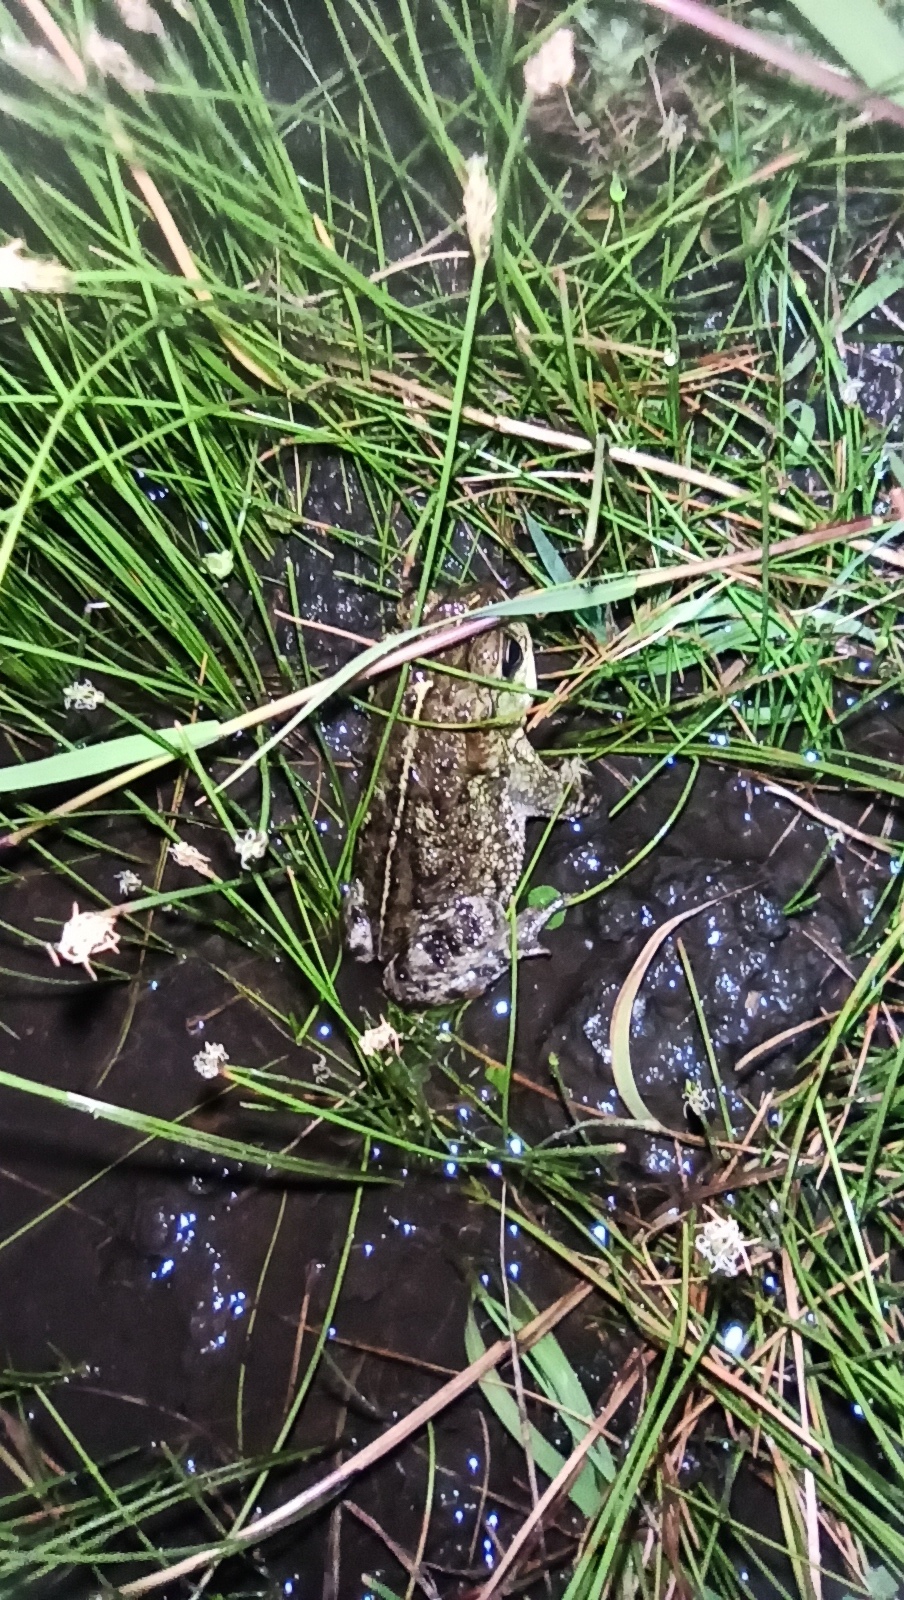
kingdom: Animalia
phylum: Chordata
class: Amphibia
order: Anura
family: Bufonidae
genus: Rhinella
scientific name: Rhinella dorbignyi
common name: D´orbigny’s toad
